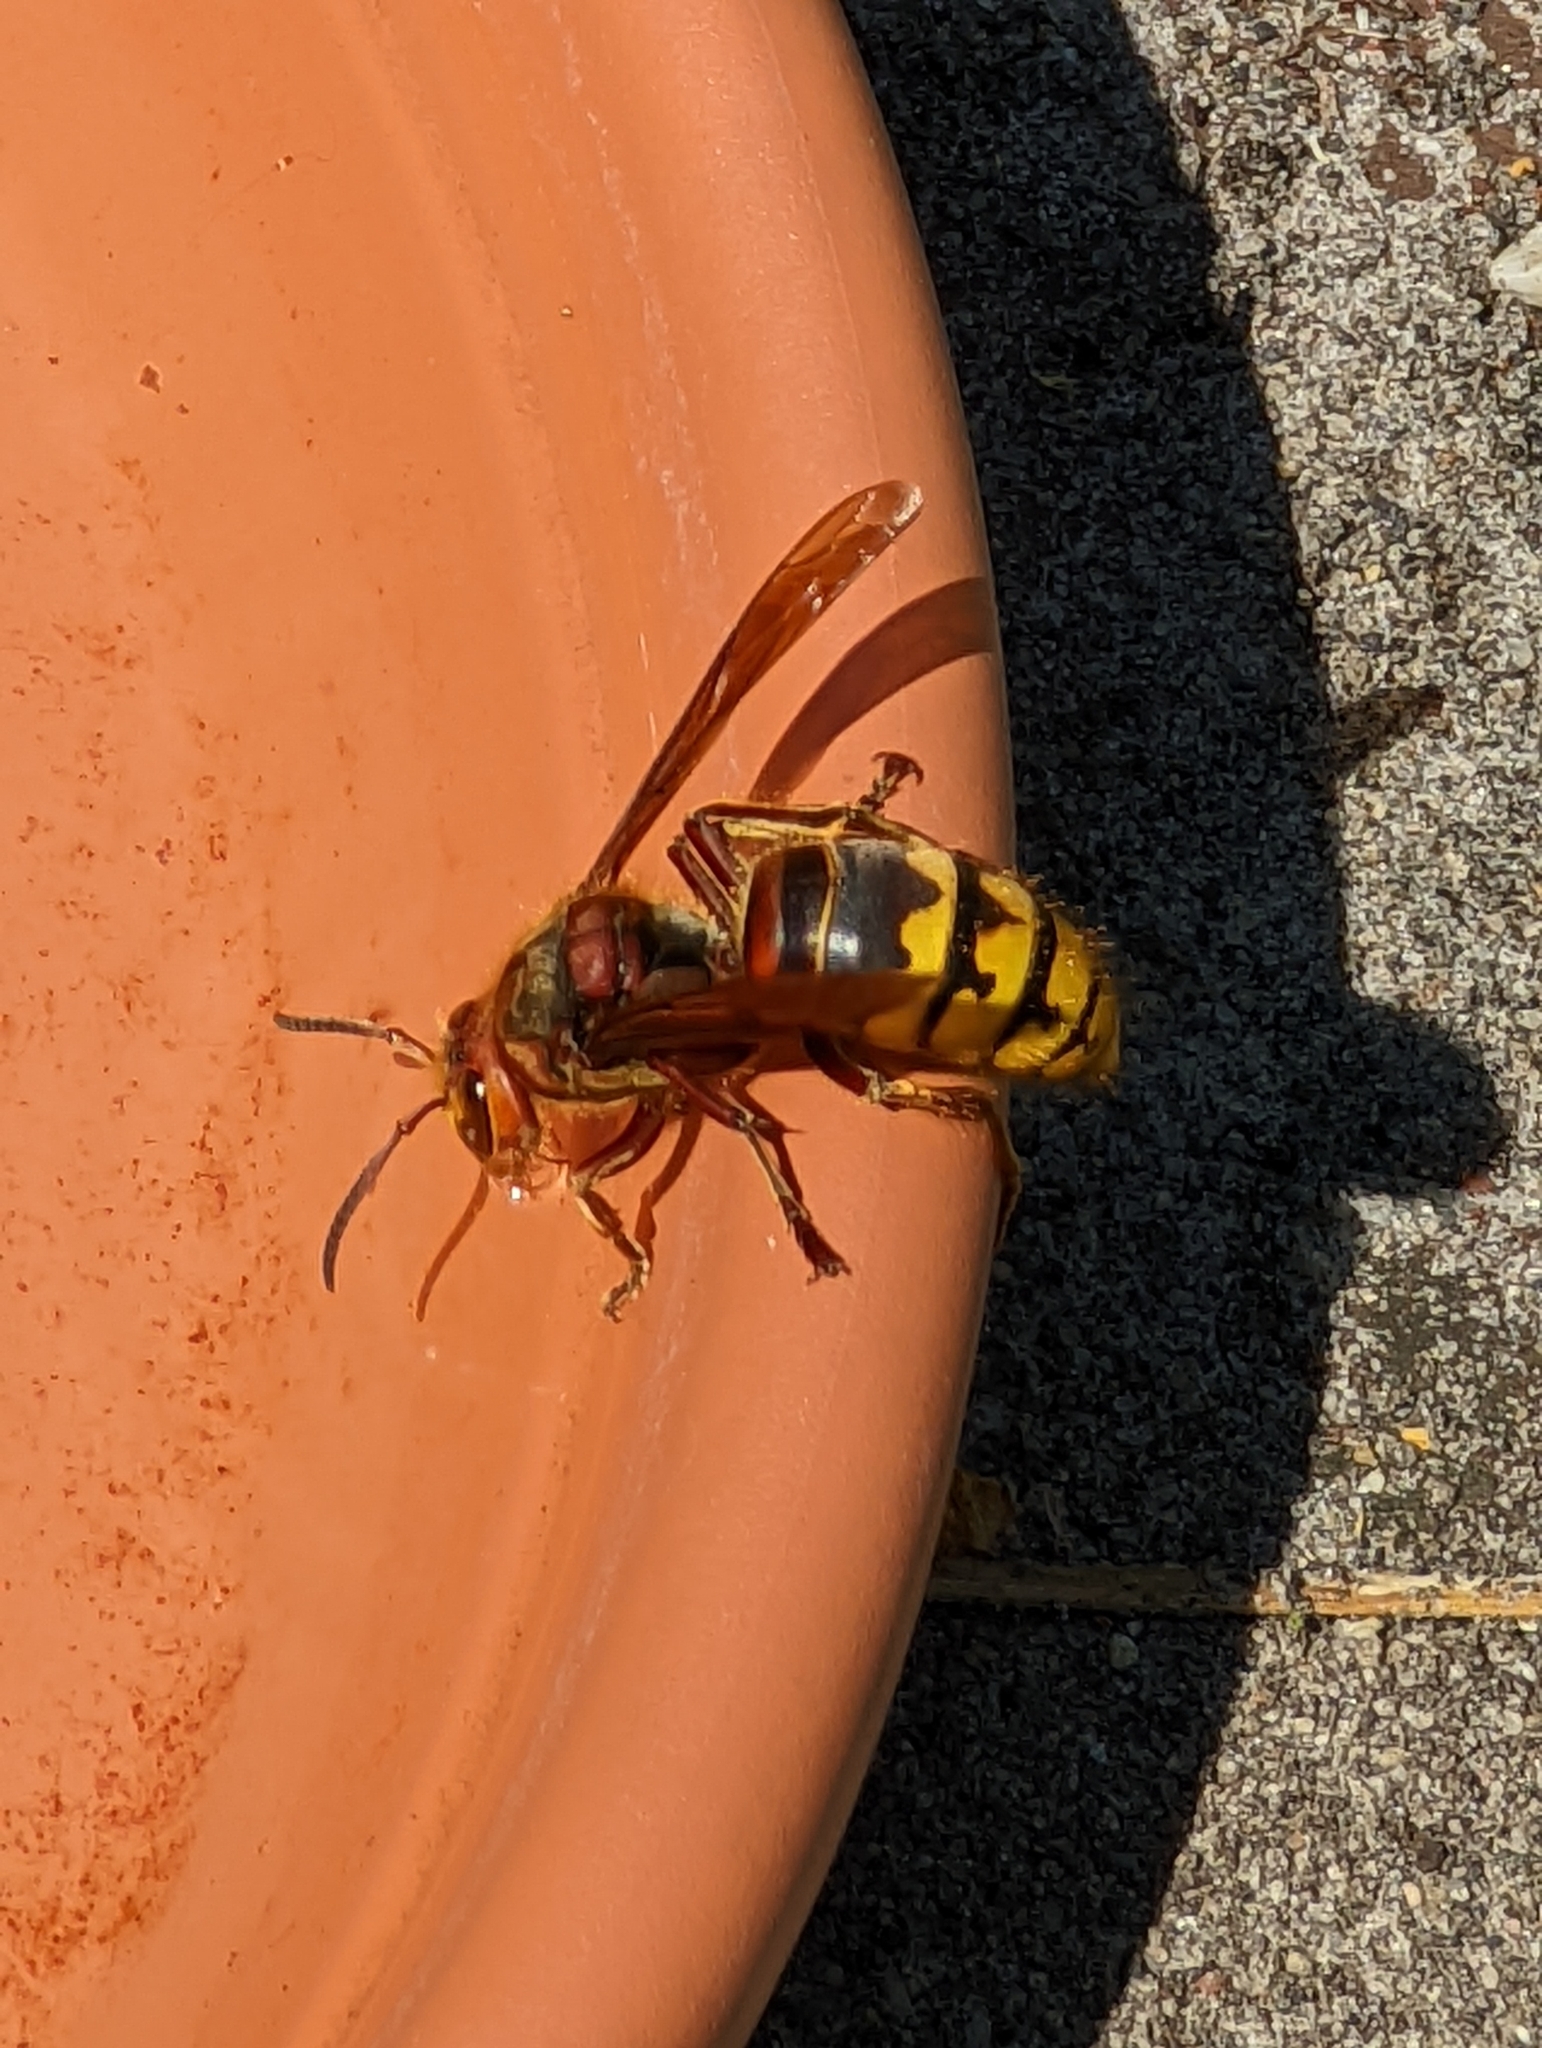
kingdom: Animalia
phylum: Arthropoda
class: Insecta
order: Hymenoptera
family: Vespidae
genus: Vespa
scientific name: Vespa crabro
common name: Hornet
